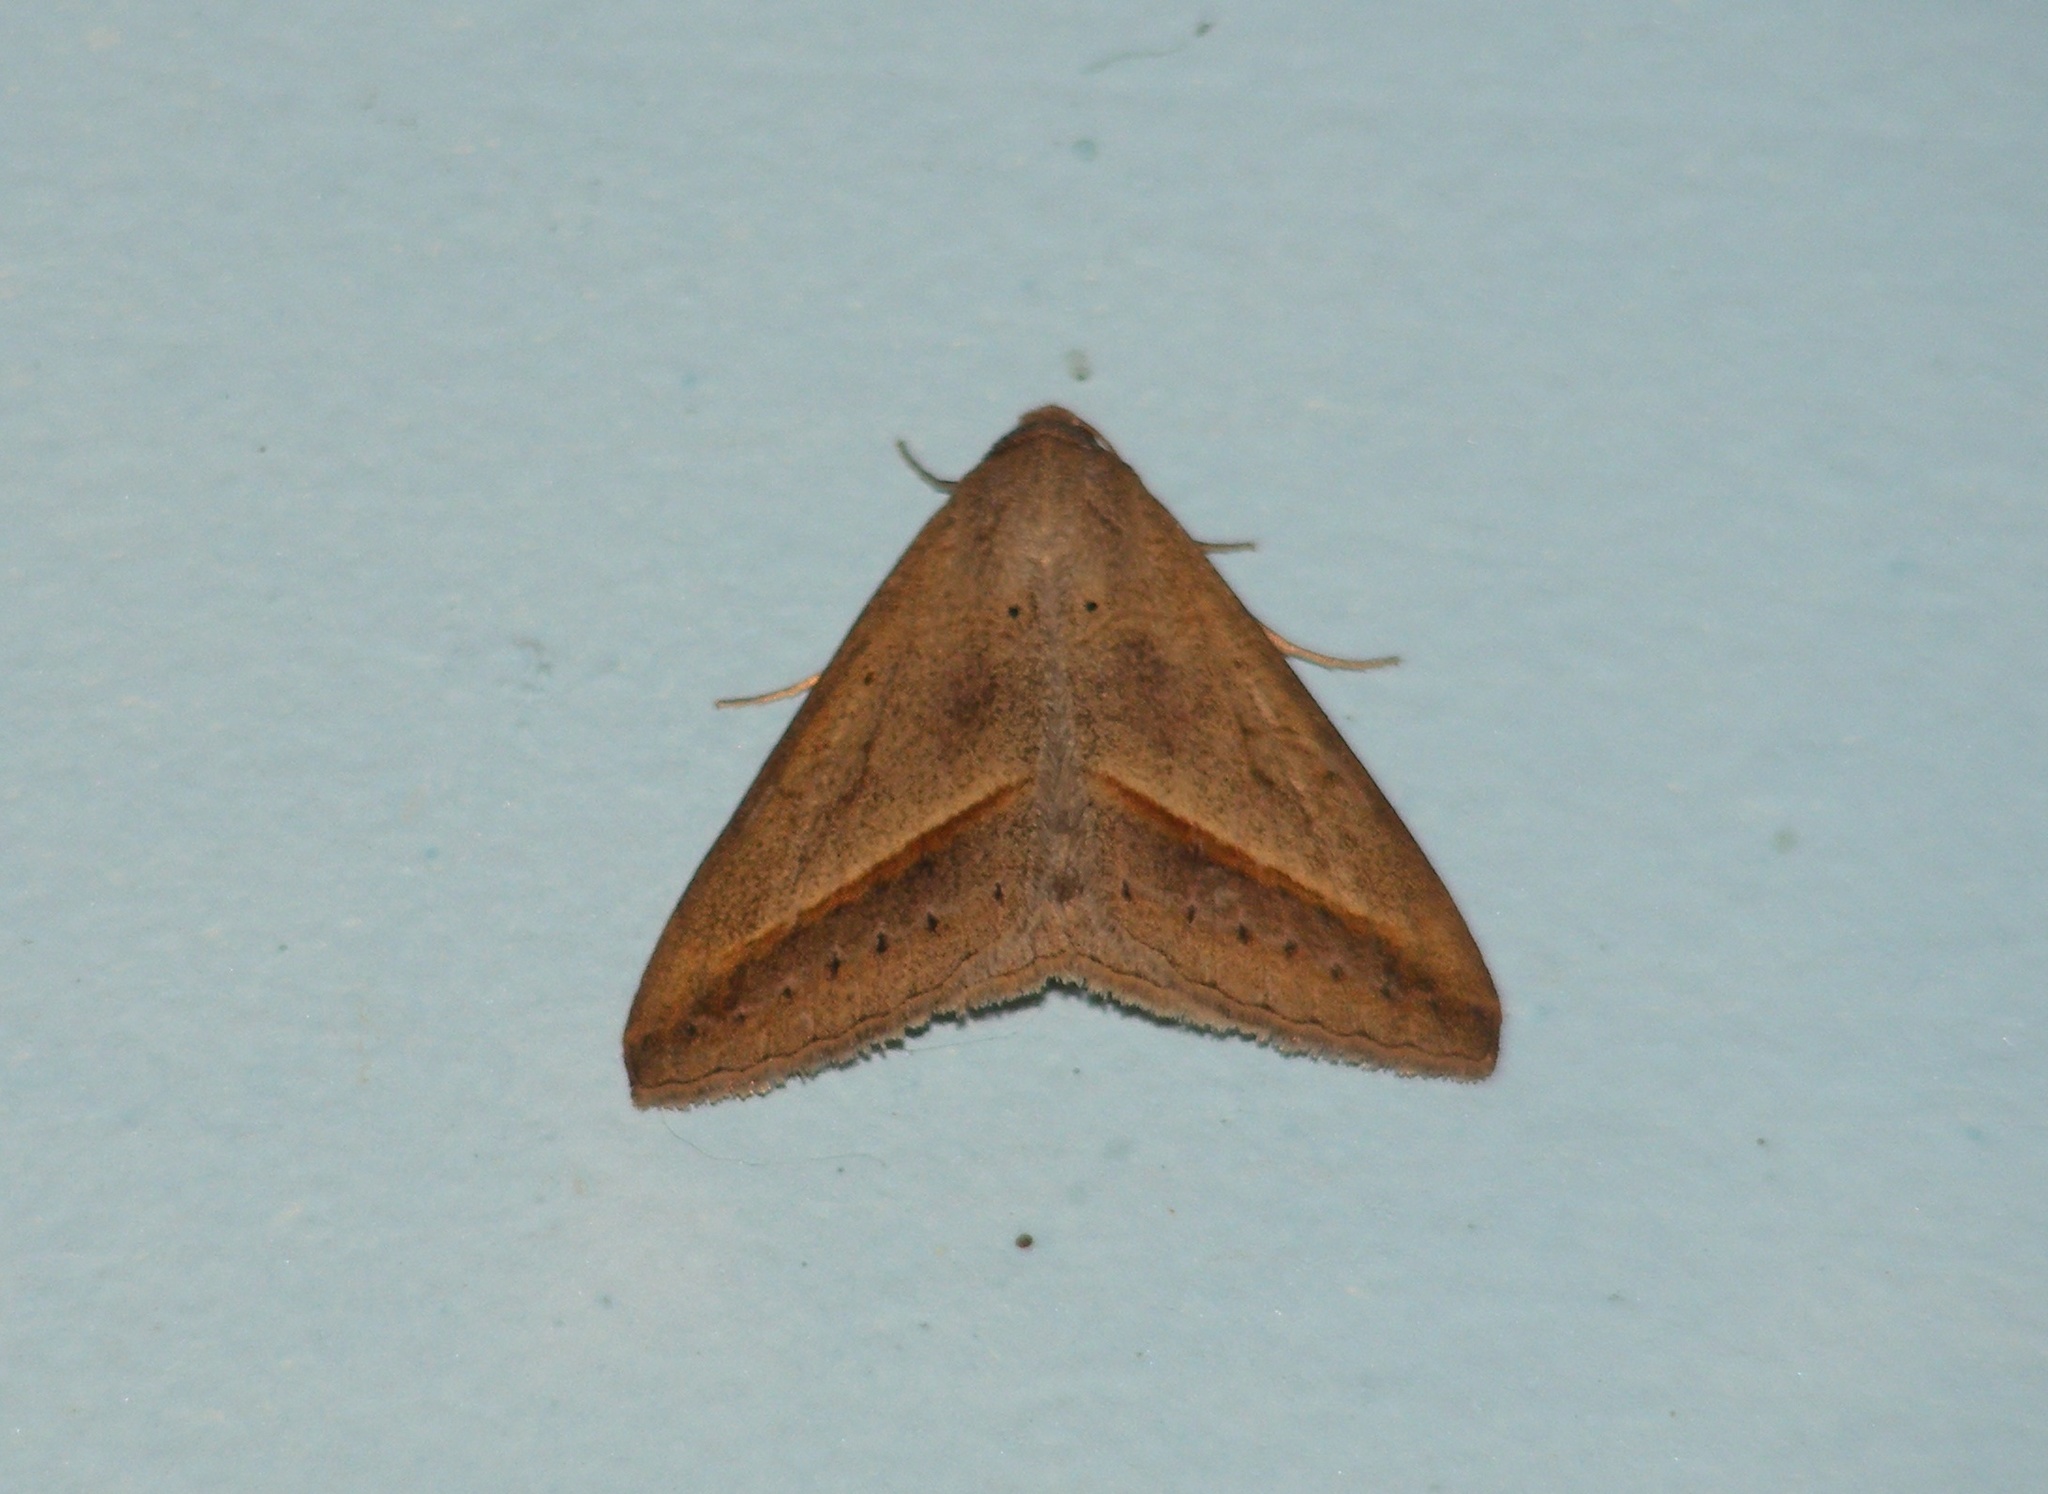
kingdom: Animalia
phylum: Arthropoda
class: Insecta
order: Lepidoptera
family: Erebidae
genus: Mocis
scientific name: Mocis frugalis
